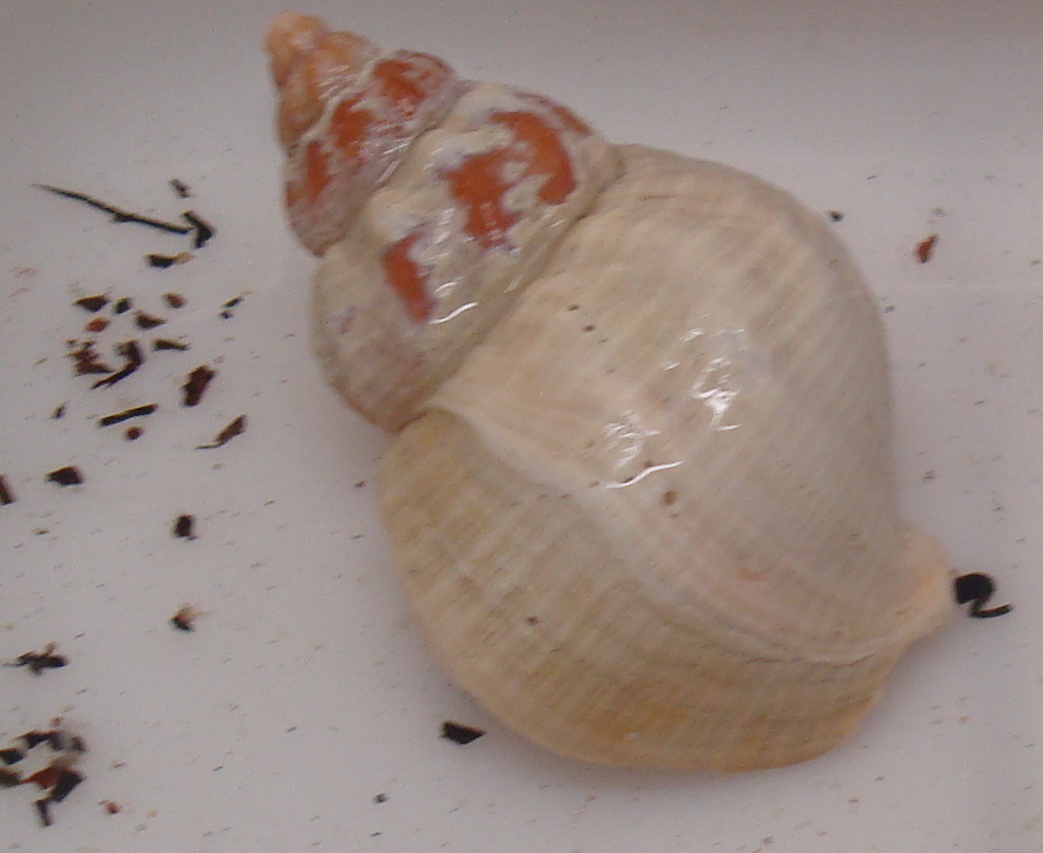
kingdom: Animalia
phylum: Mollusca
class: Gastropoda
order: Neogastropoda
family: Buccinidae
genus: Buccinum
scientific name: Buccinum undatum
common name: Common whelk
